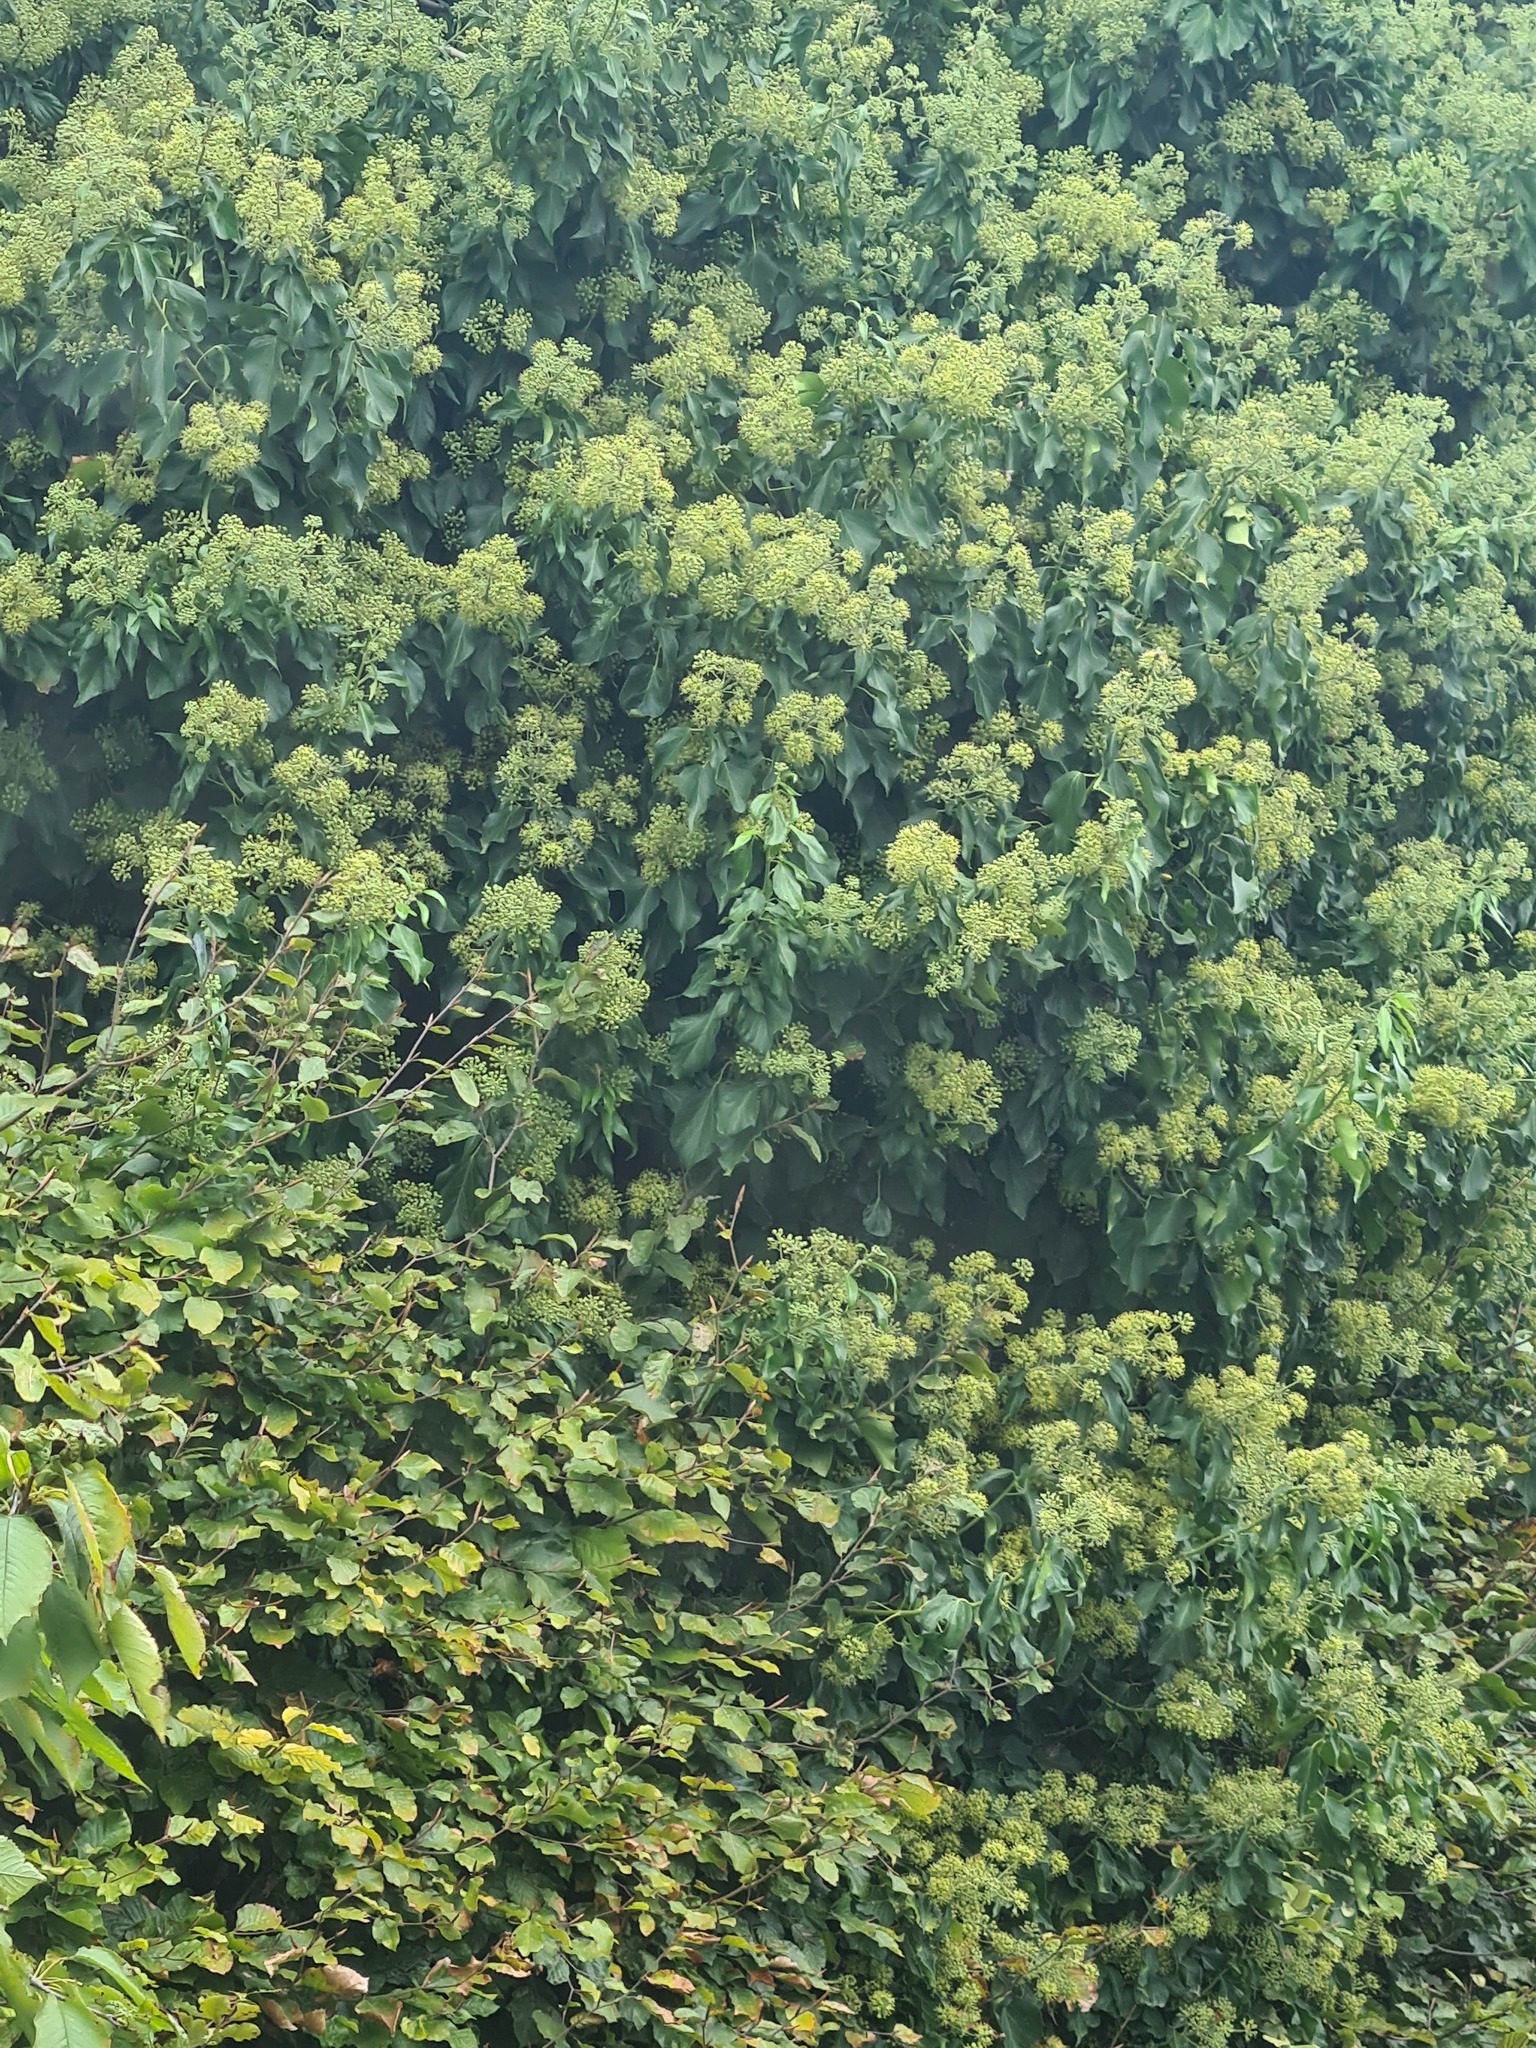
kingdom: Plantae
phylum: Tracheophyta
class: Magnoliopsida
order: Apiales
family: Araliaceae
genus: Hedera
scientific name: Hedera helix
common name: Ivy
